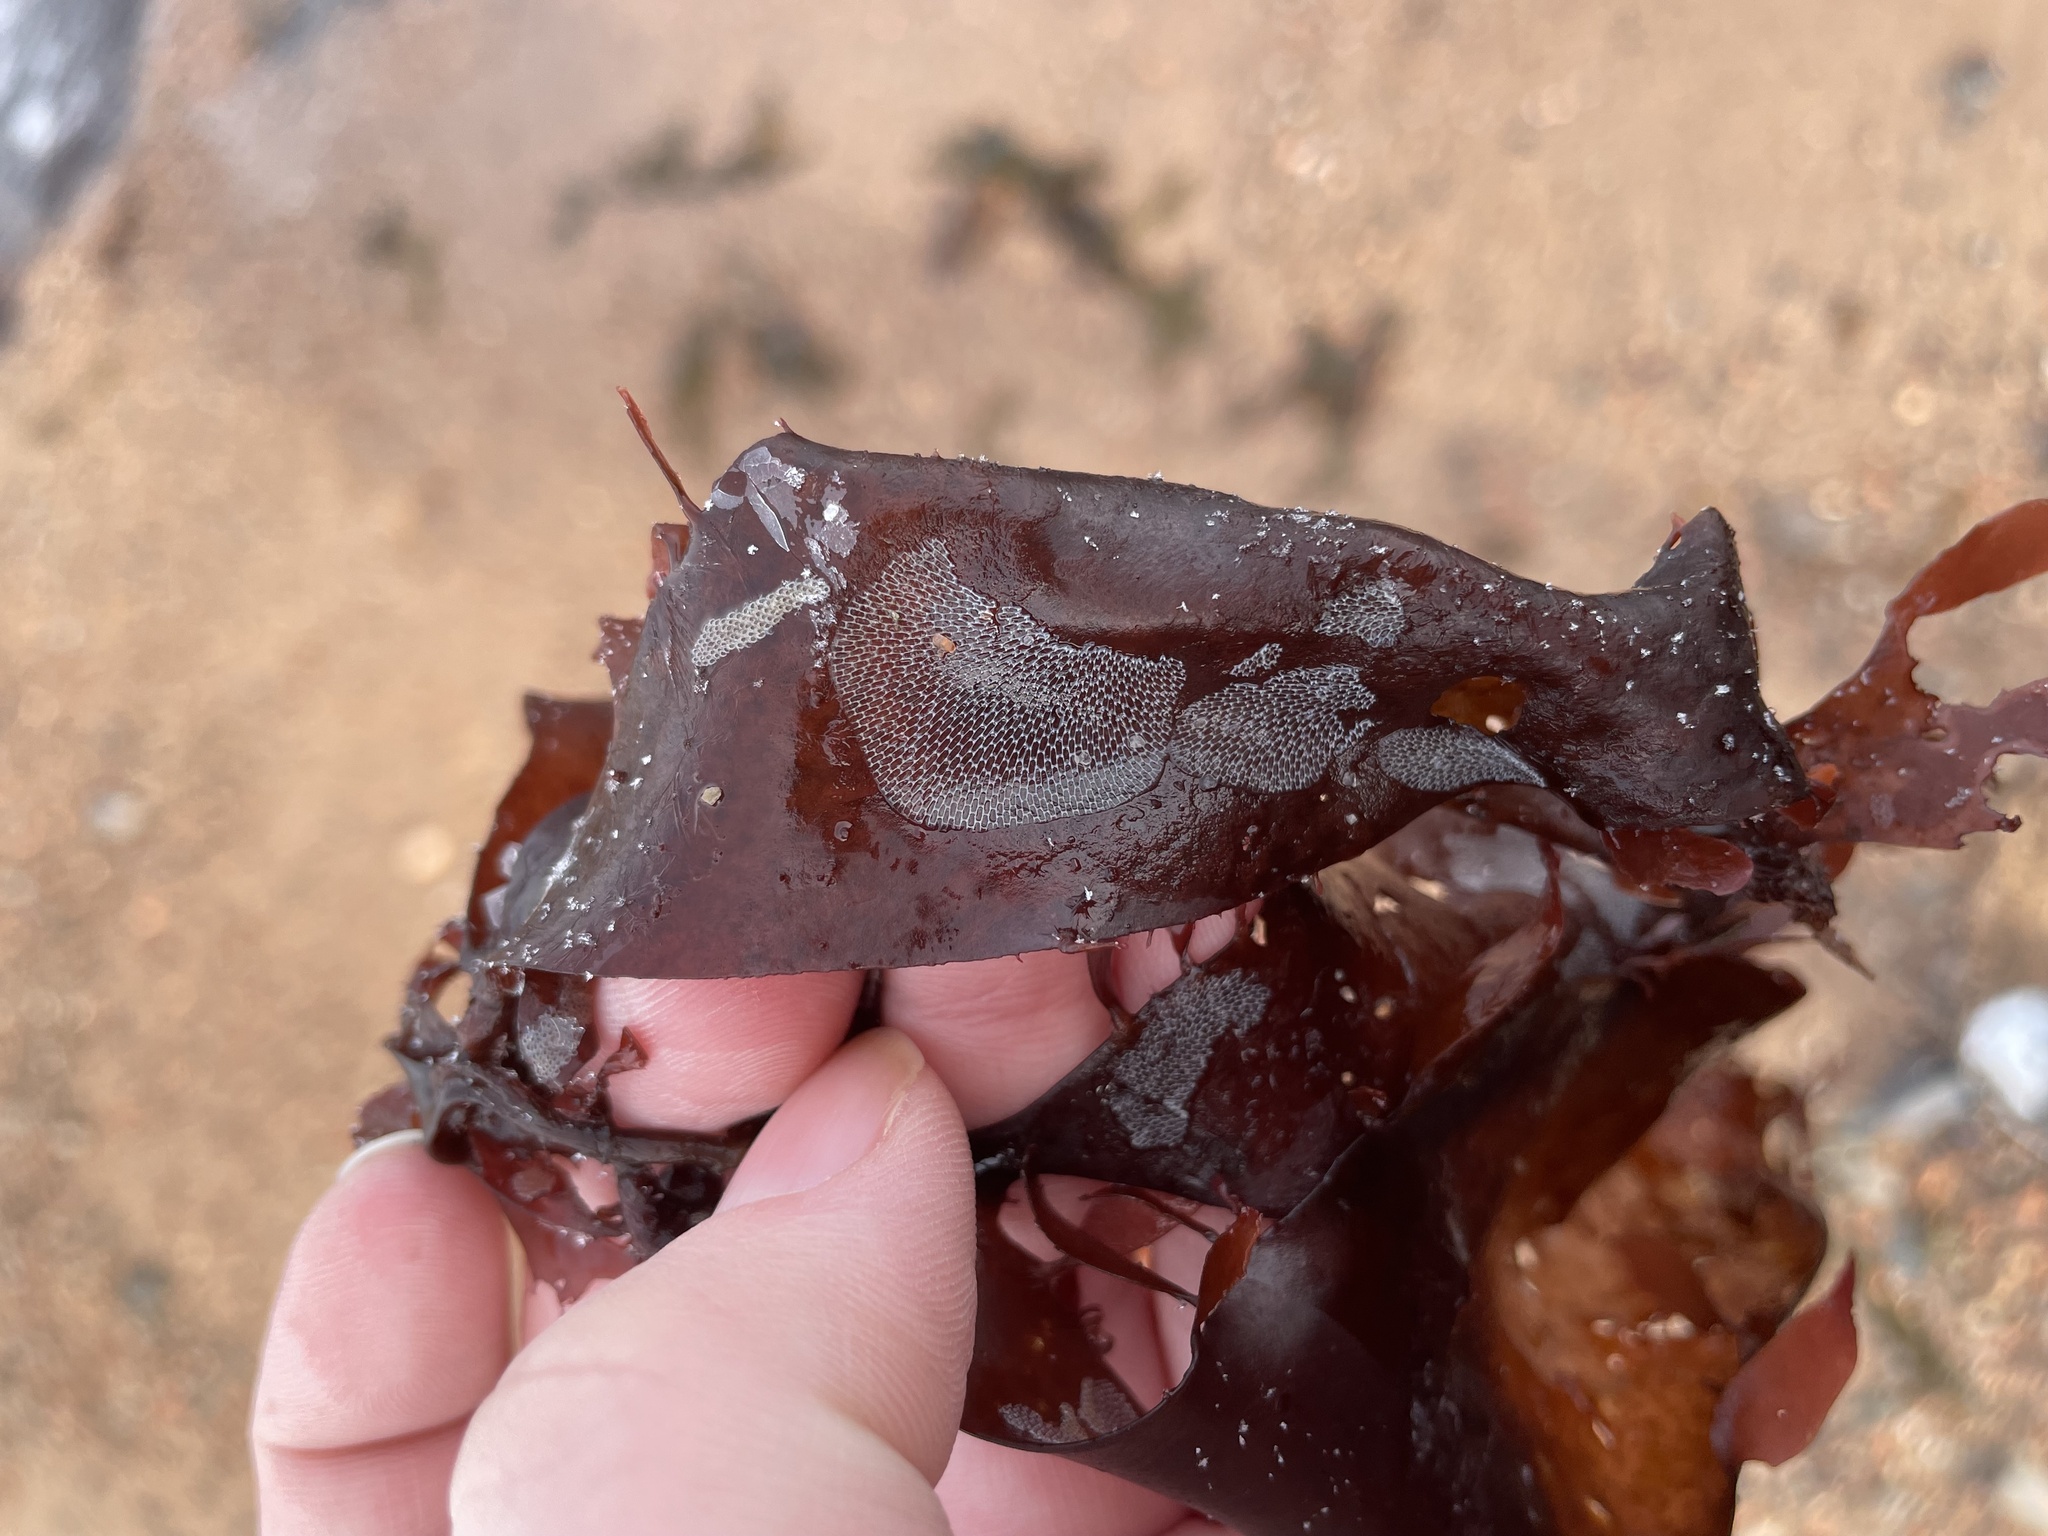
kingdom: Animalia
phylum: Bryozoa
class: Gymnolaemata
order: Cheilostomatida
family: Membraniporidae
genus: Membranipora
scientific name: Membranipora membranacea
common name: Sea mat
